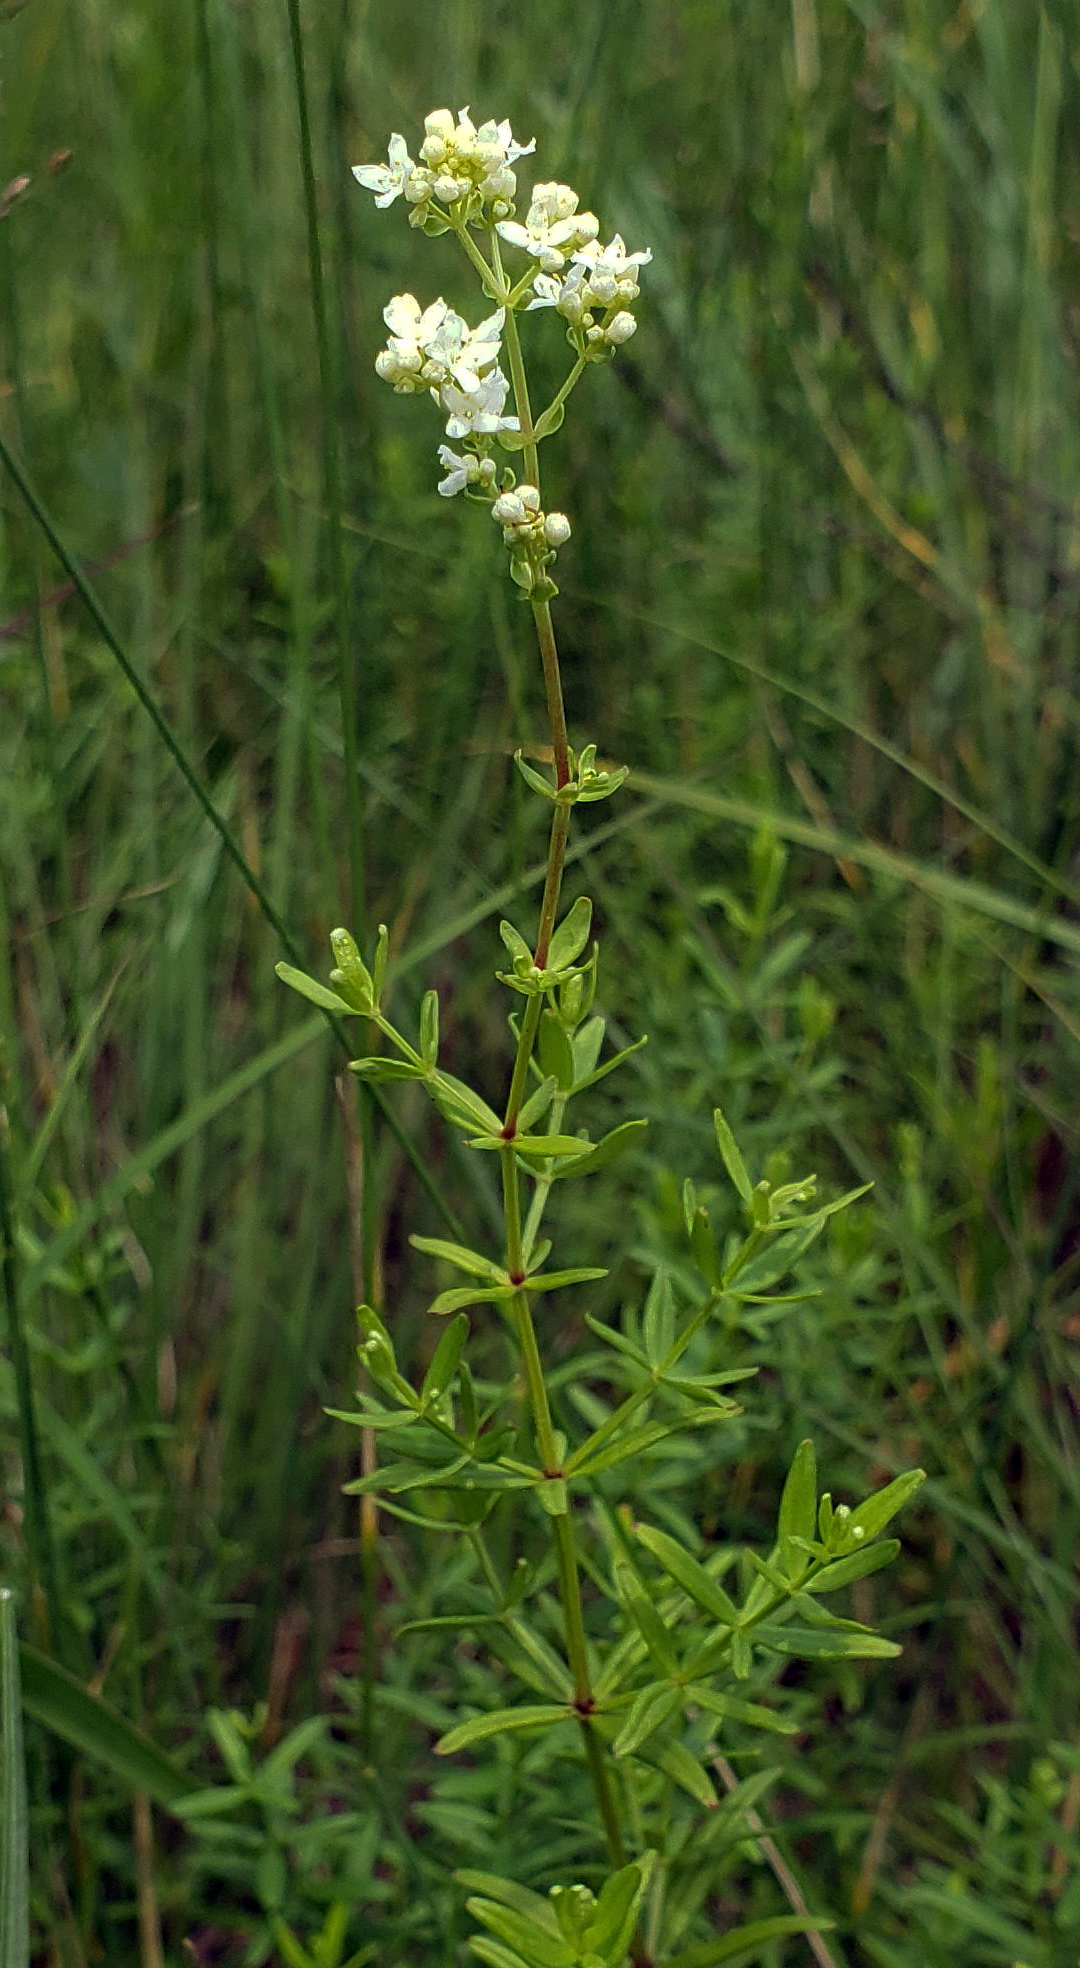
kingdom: Plantae
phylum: Tracheophyta
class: Magnoliopsida
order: Gentianales
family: Rubiaceae
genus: Galium
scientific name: Galium boreale
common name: Northern bedstraw
